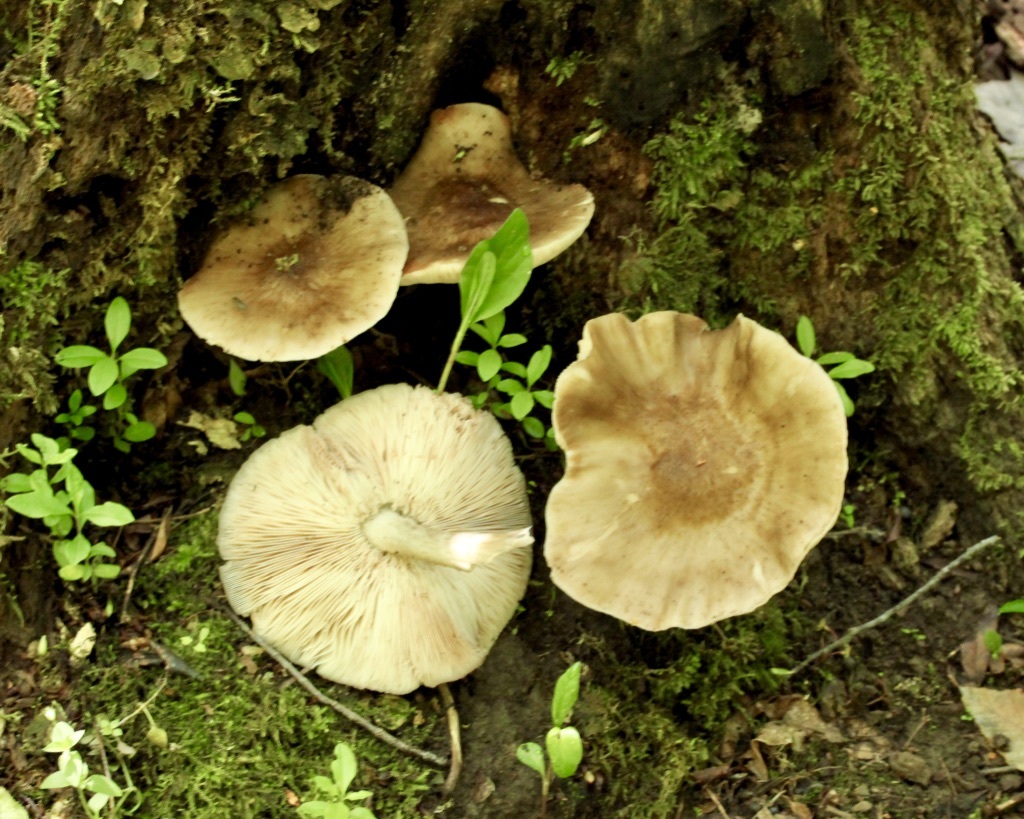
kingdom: Fungi
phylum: Basidiomycota
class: Agaricomycetes
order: Agaricales
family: Pluteaceae
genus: Pluteus
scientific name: Pluteus cervinus
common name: Deer shield
